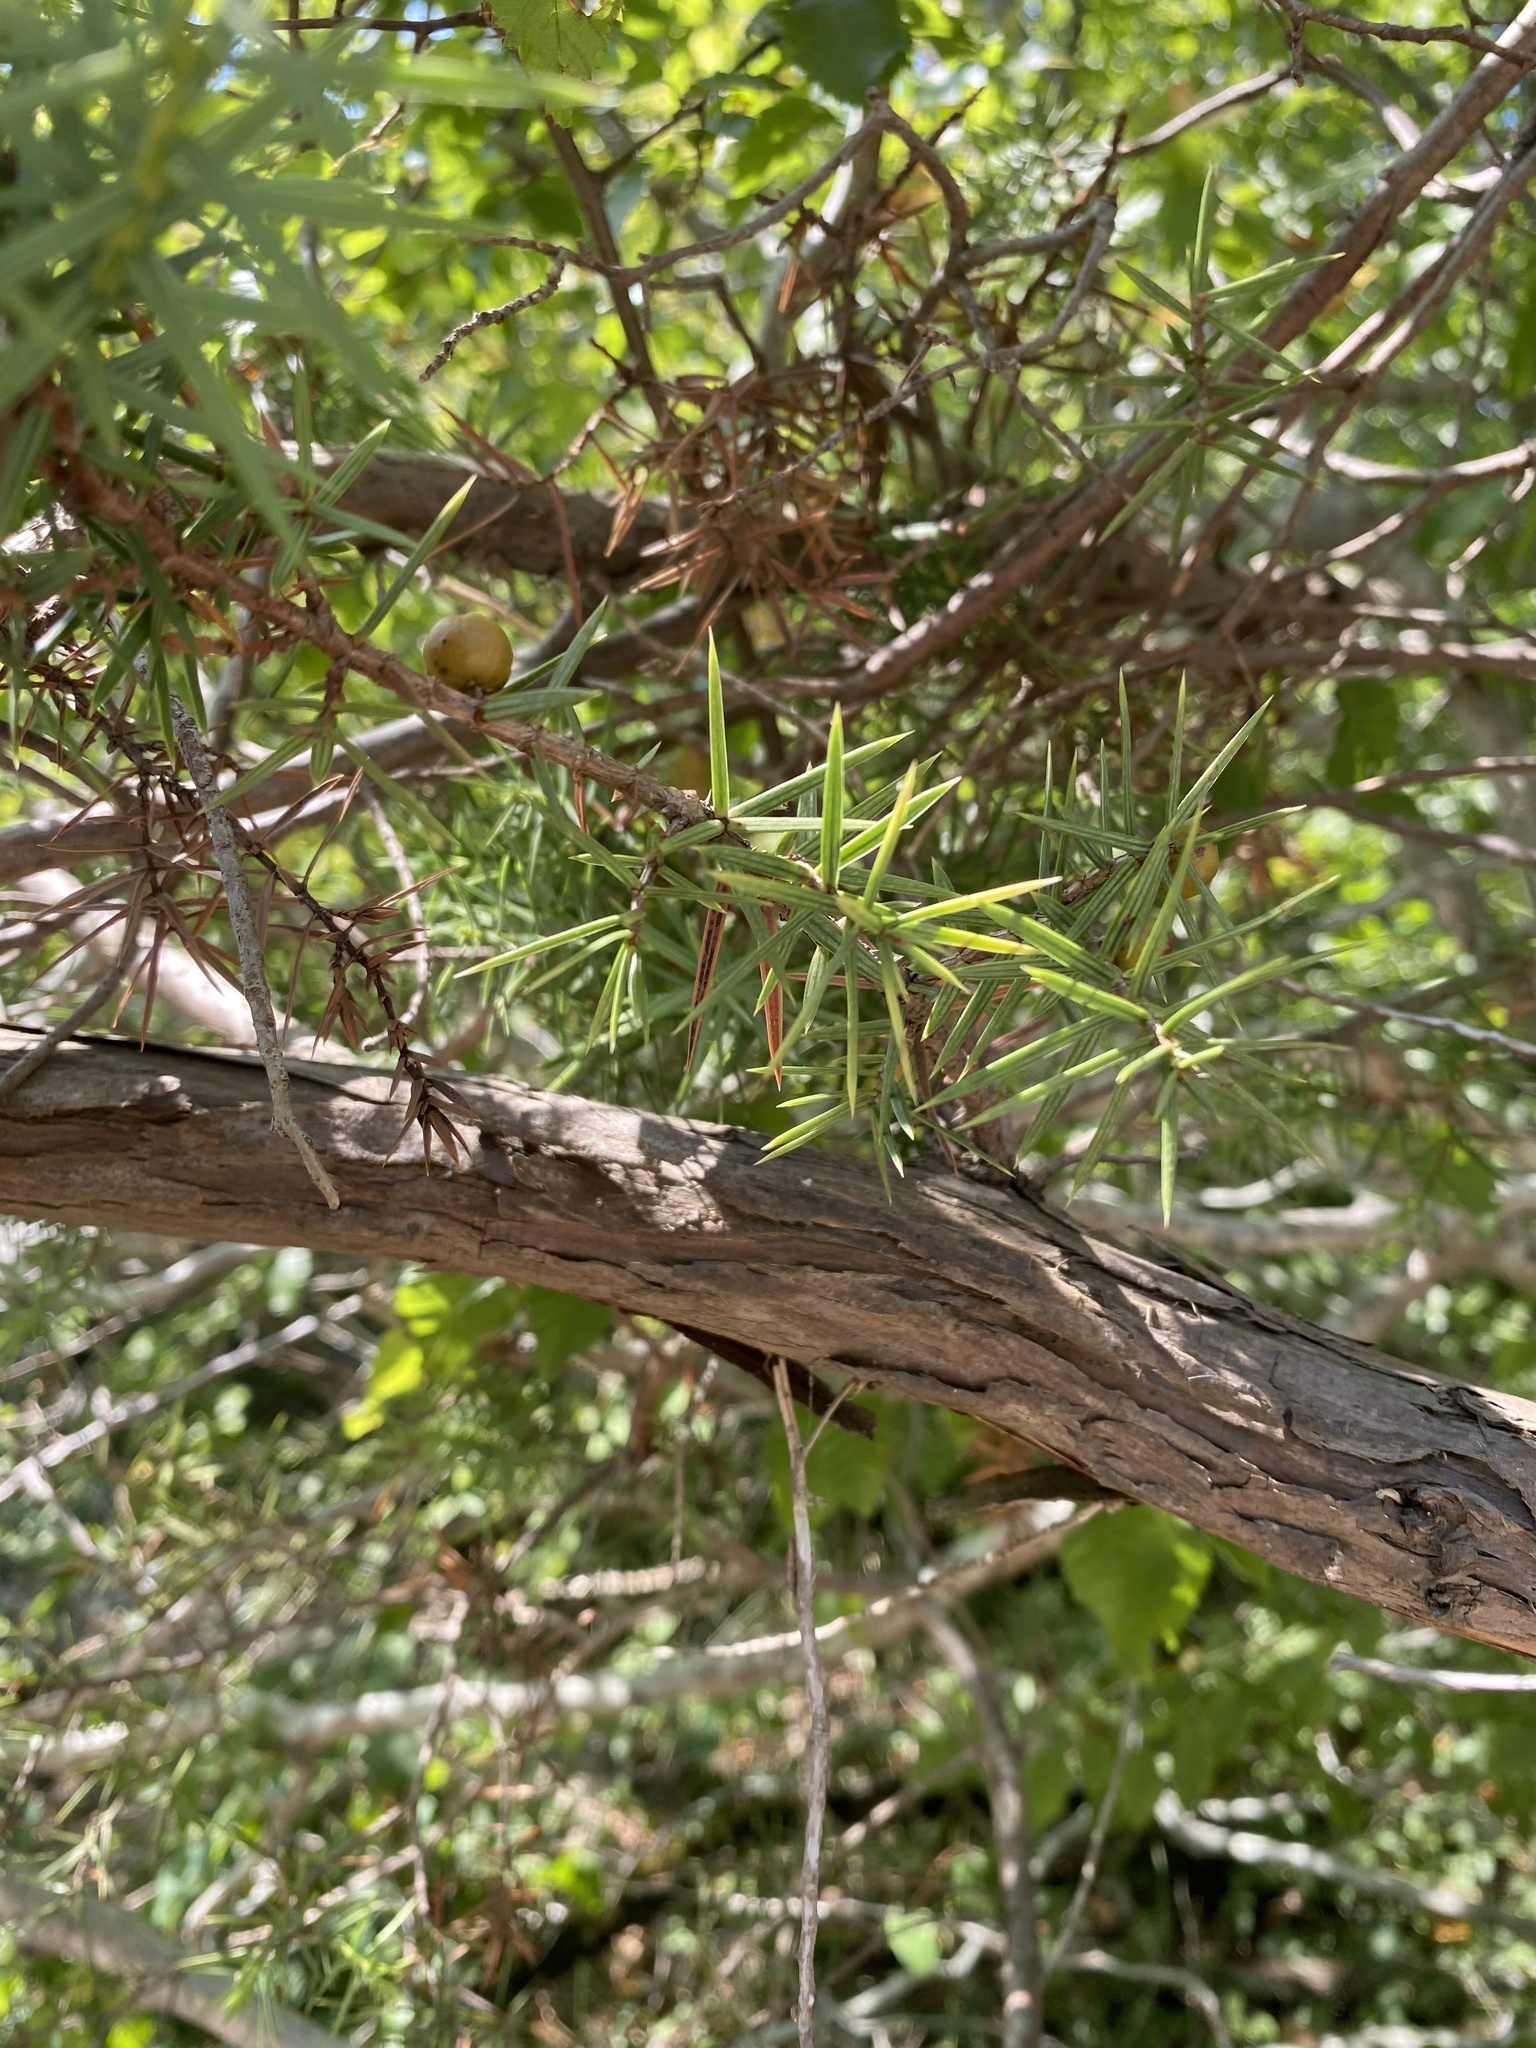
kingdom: Plantae
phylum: Tracheophyta
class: Pinopsida
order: Pinales
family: Cupressaceae
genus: Juniperus
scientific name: Juniperus oxycedrus
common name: Prickly juniper
